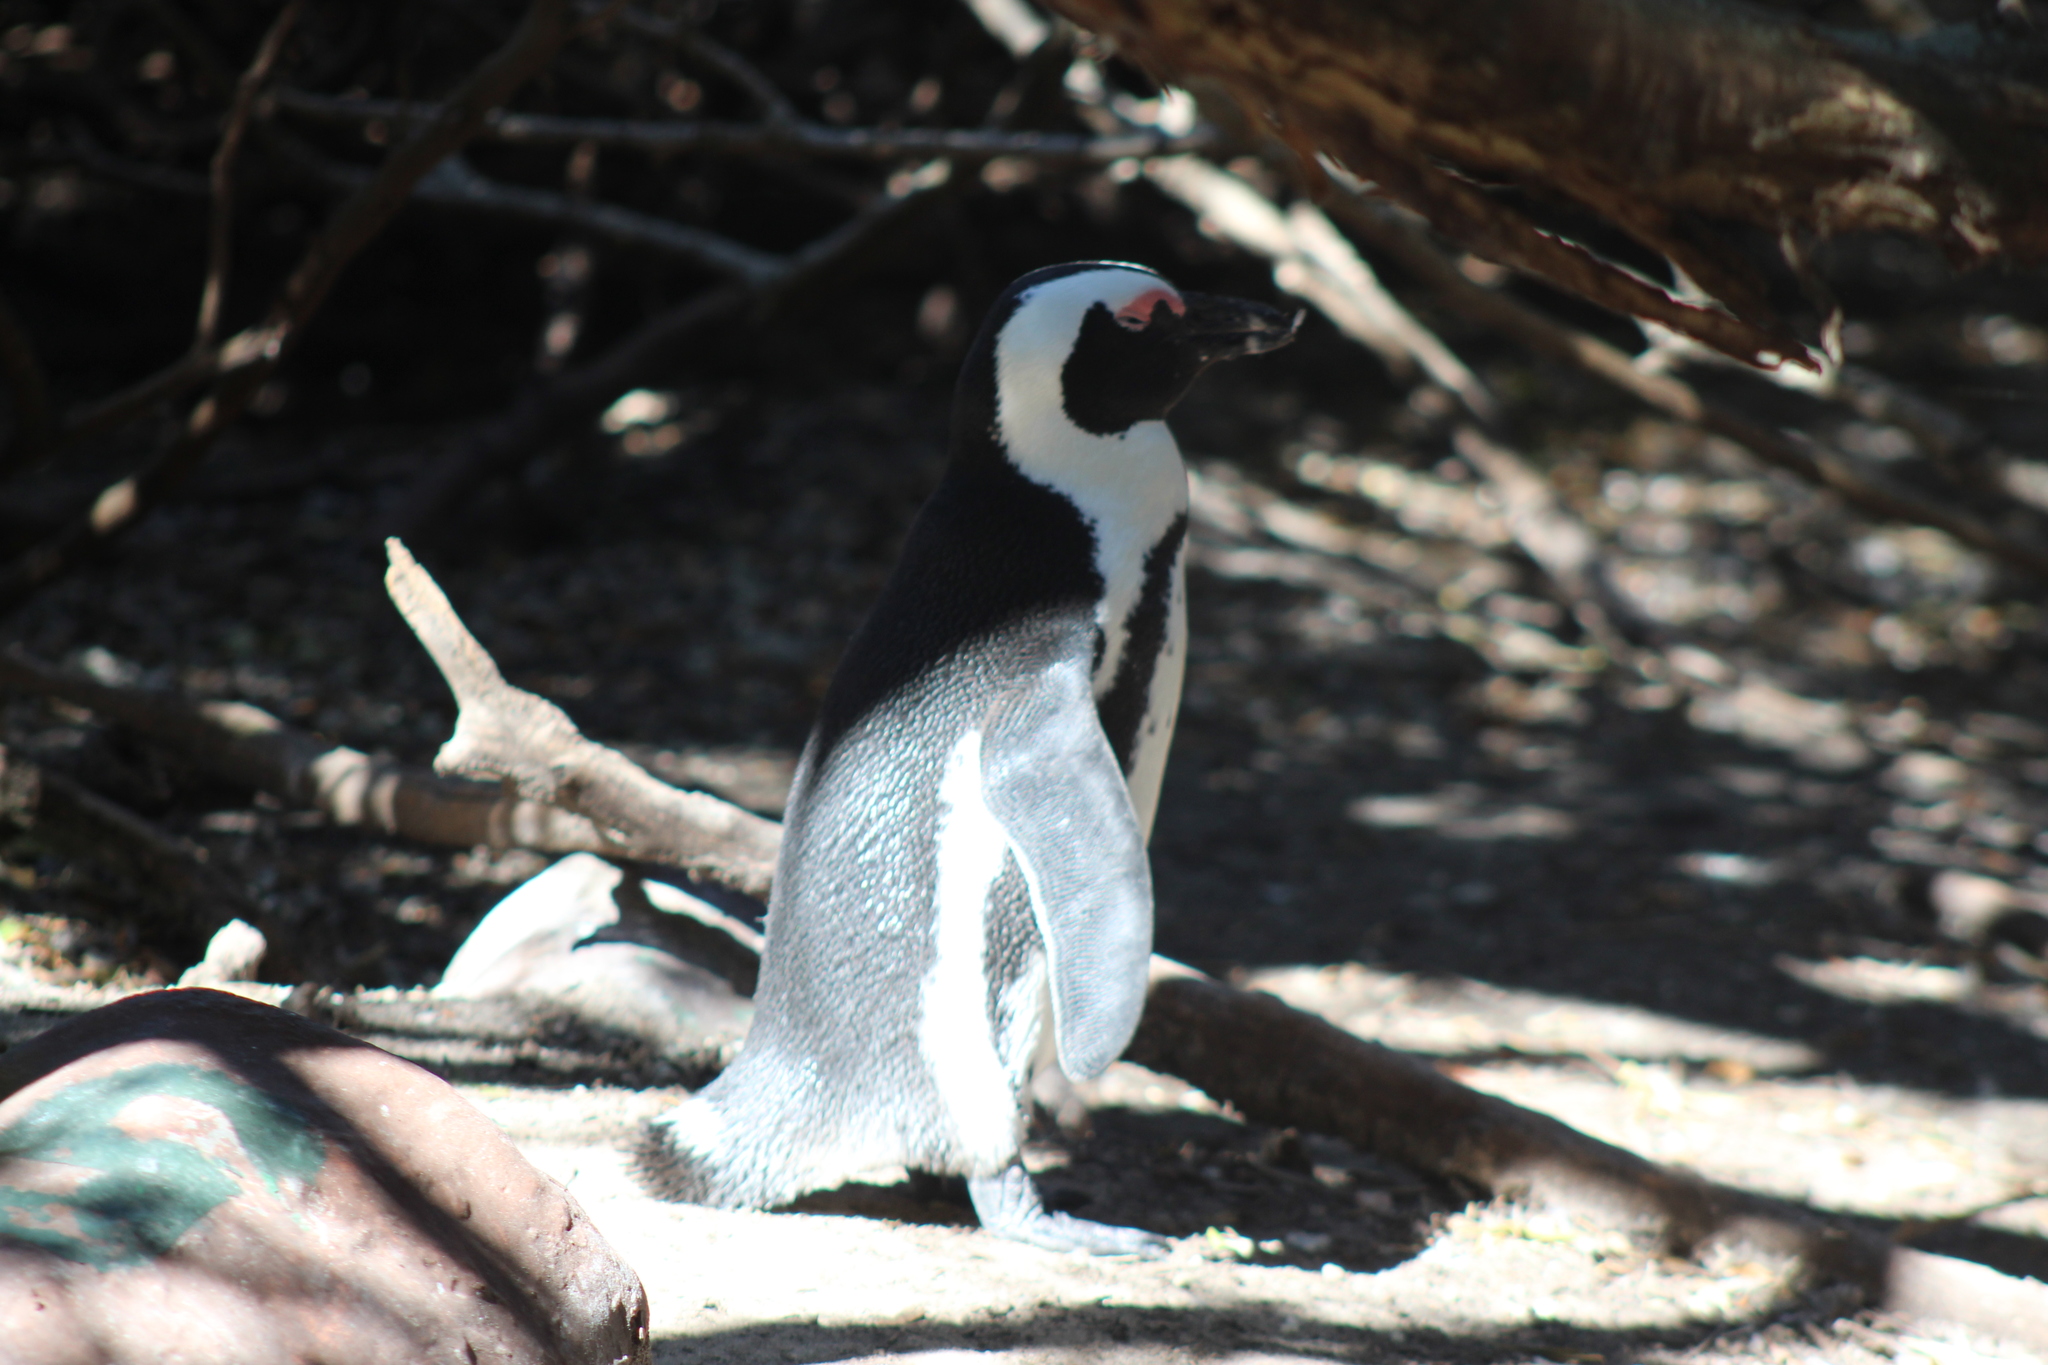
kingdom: Animalia
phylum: Chordata
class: Aves
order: Sphenisciformes
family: Spheniscidae
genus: Spheniscus
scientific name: Spheniscus demersus
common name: African penguin
